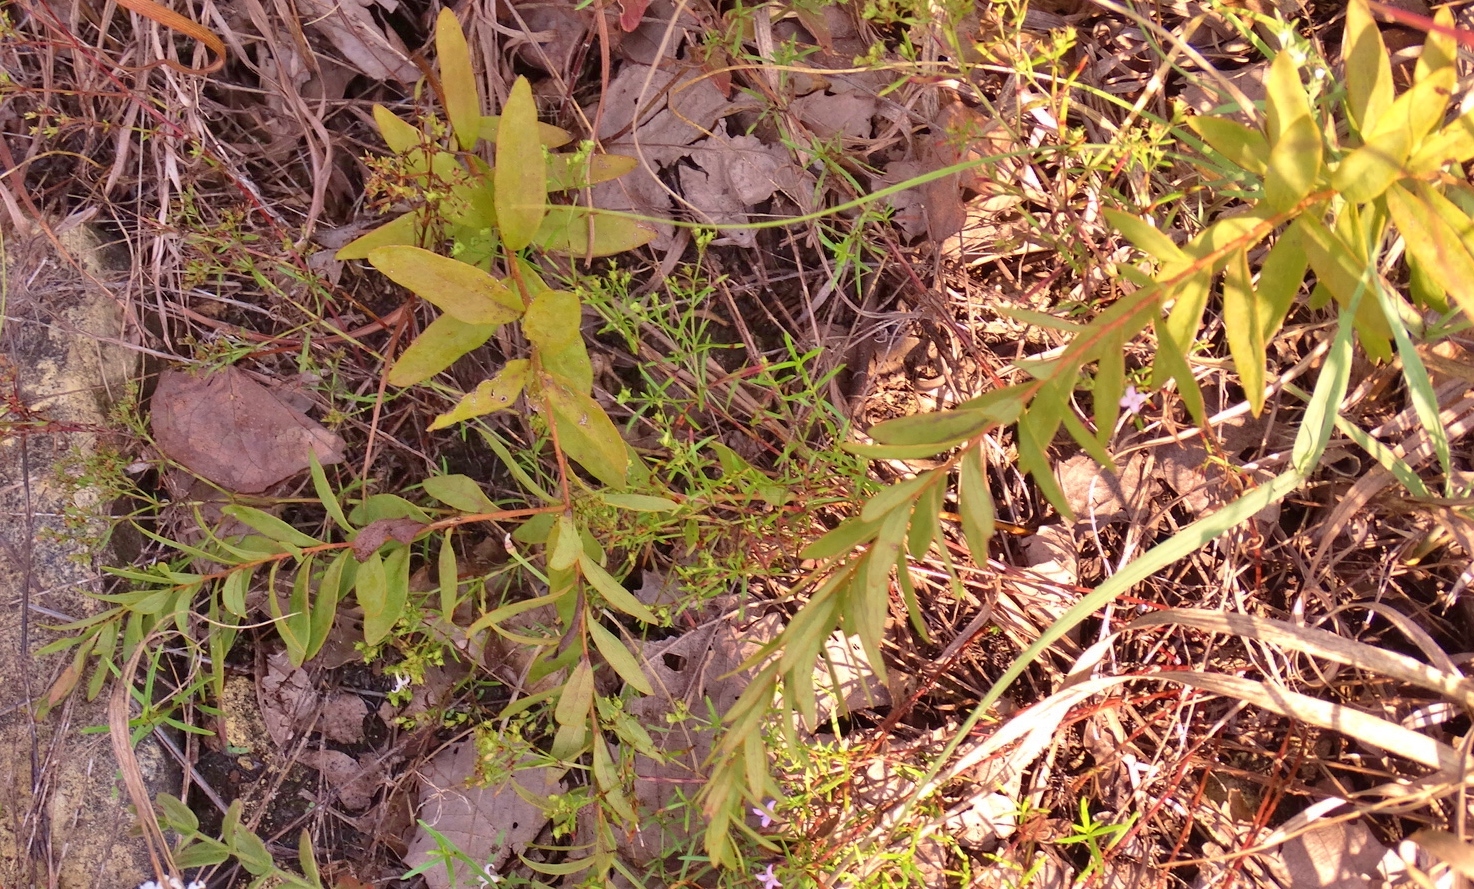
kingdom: Plantae
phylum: Tracheophyta
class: Magnoliopsida
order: Santalales
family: Comandraceae
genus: Comandra
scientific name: Comandra umbellata
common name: Bastard toadflax
